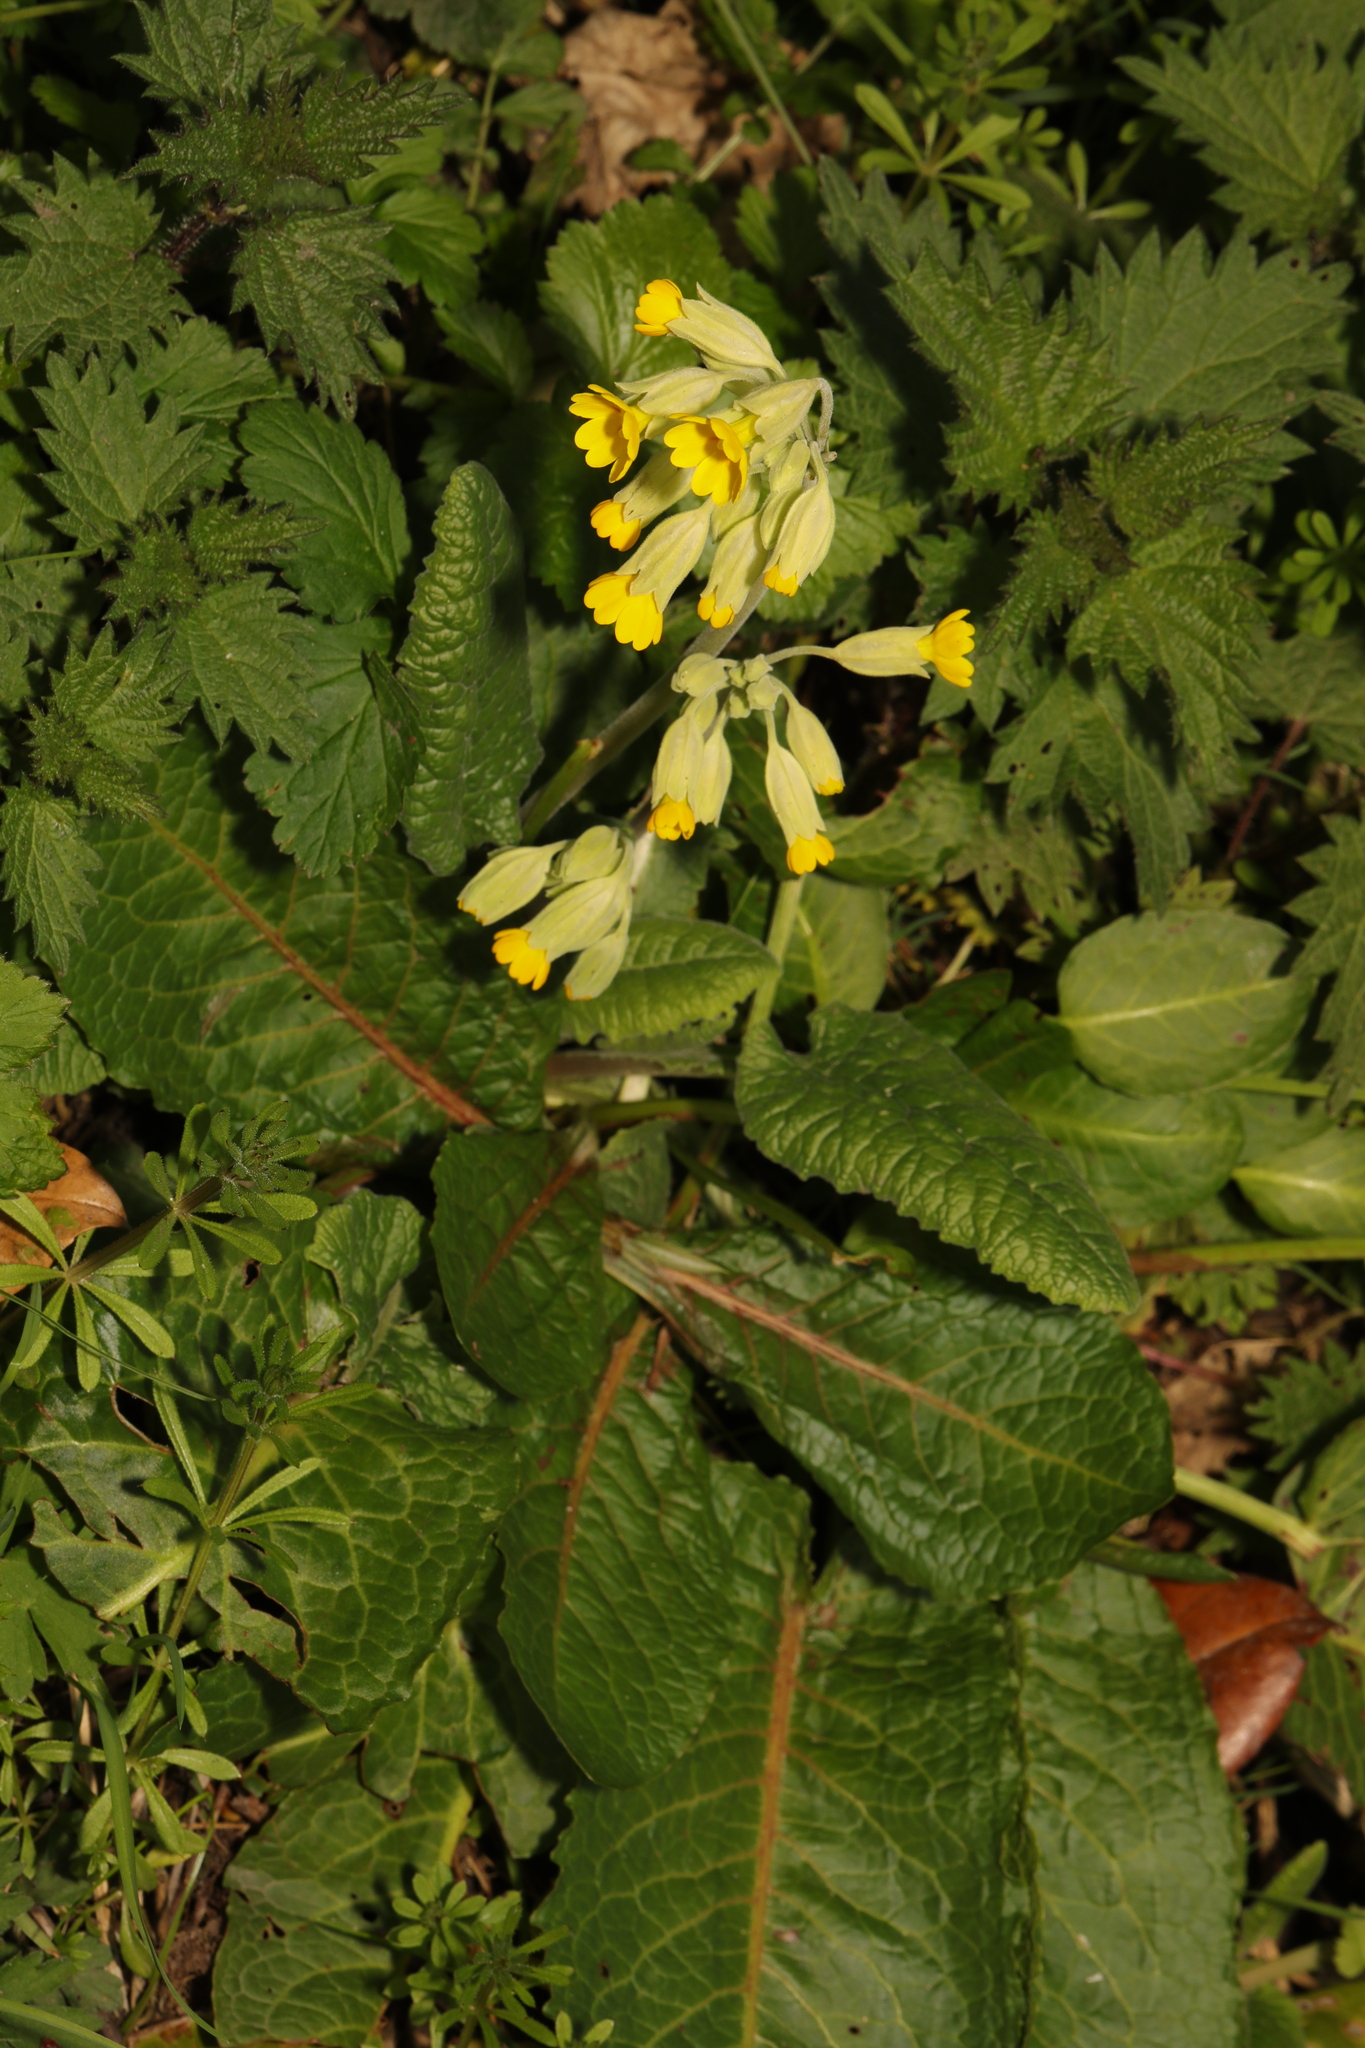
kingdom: Plantae
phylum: Tracheophyta
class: Magnoliopsida
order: Ericales
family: Primulaceae
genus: Primula
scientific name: Primula veris
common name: Cowslip
